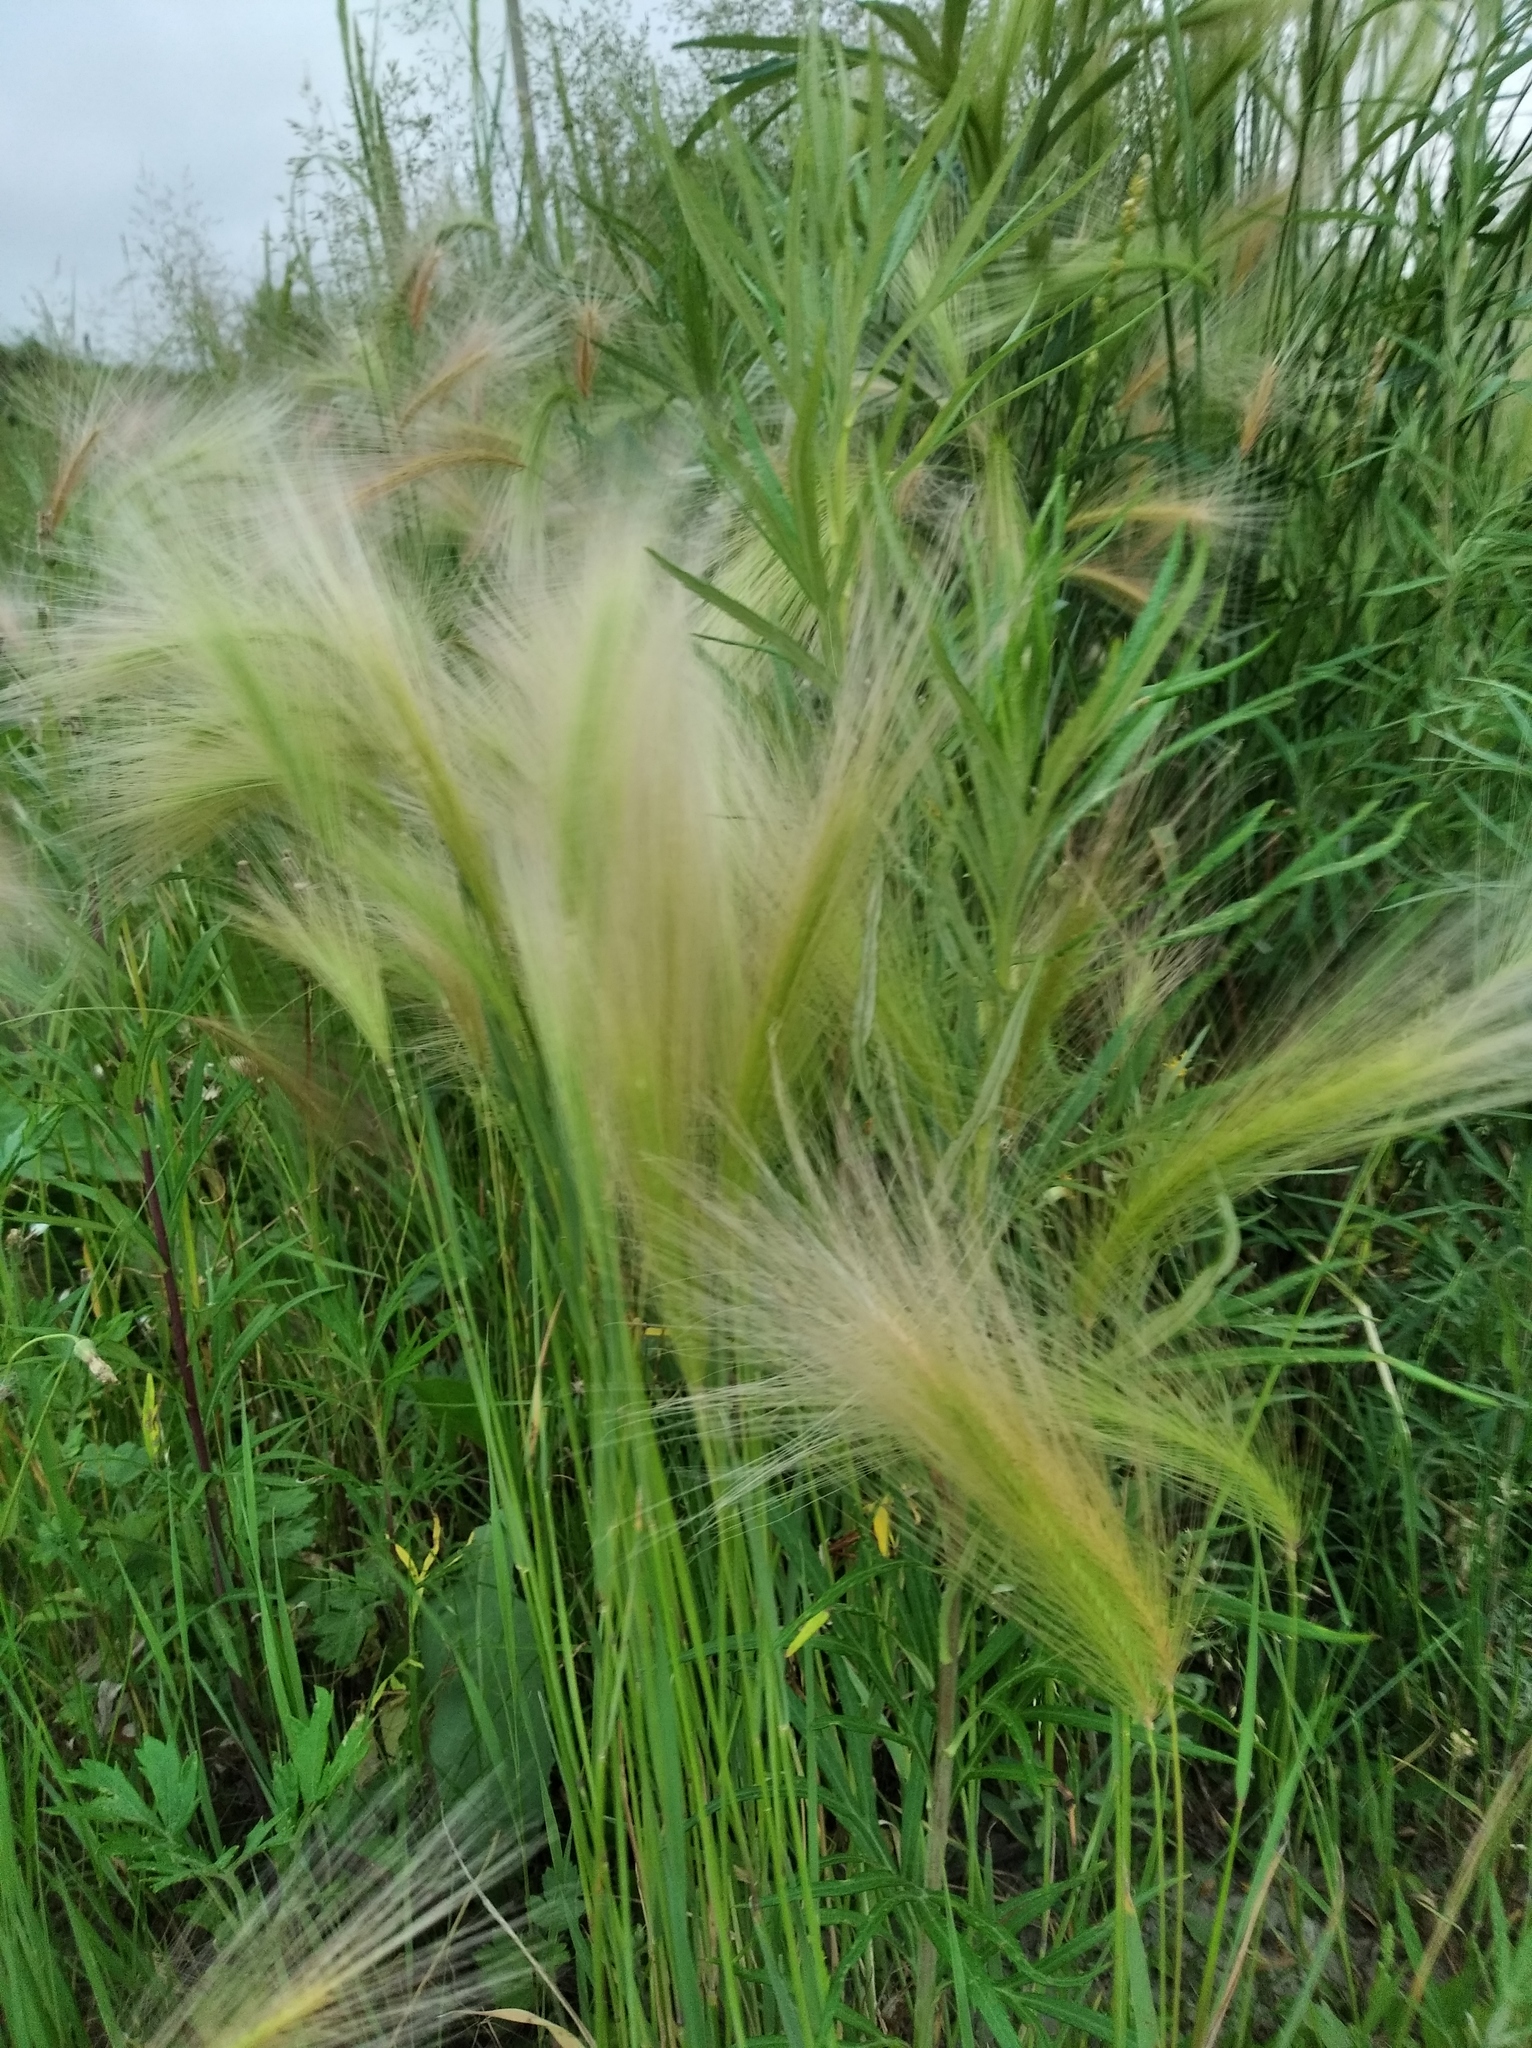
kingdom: Plantae
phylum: Tracheophyta
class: Liliopsida
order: Poales
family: Poaceae
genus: Hordeum
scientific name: Hordeum jubatum
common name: Foxtail barley
